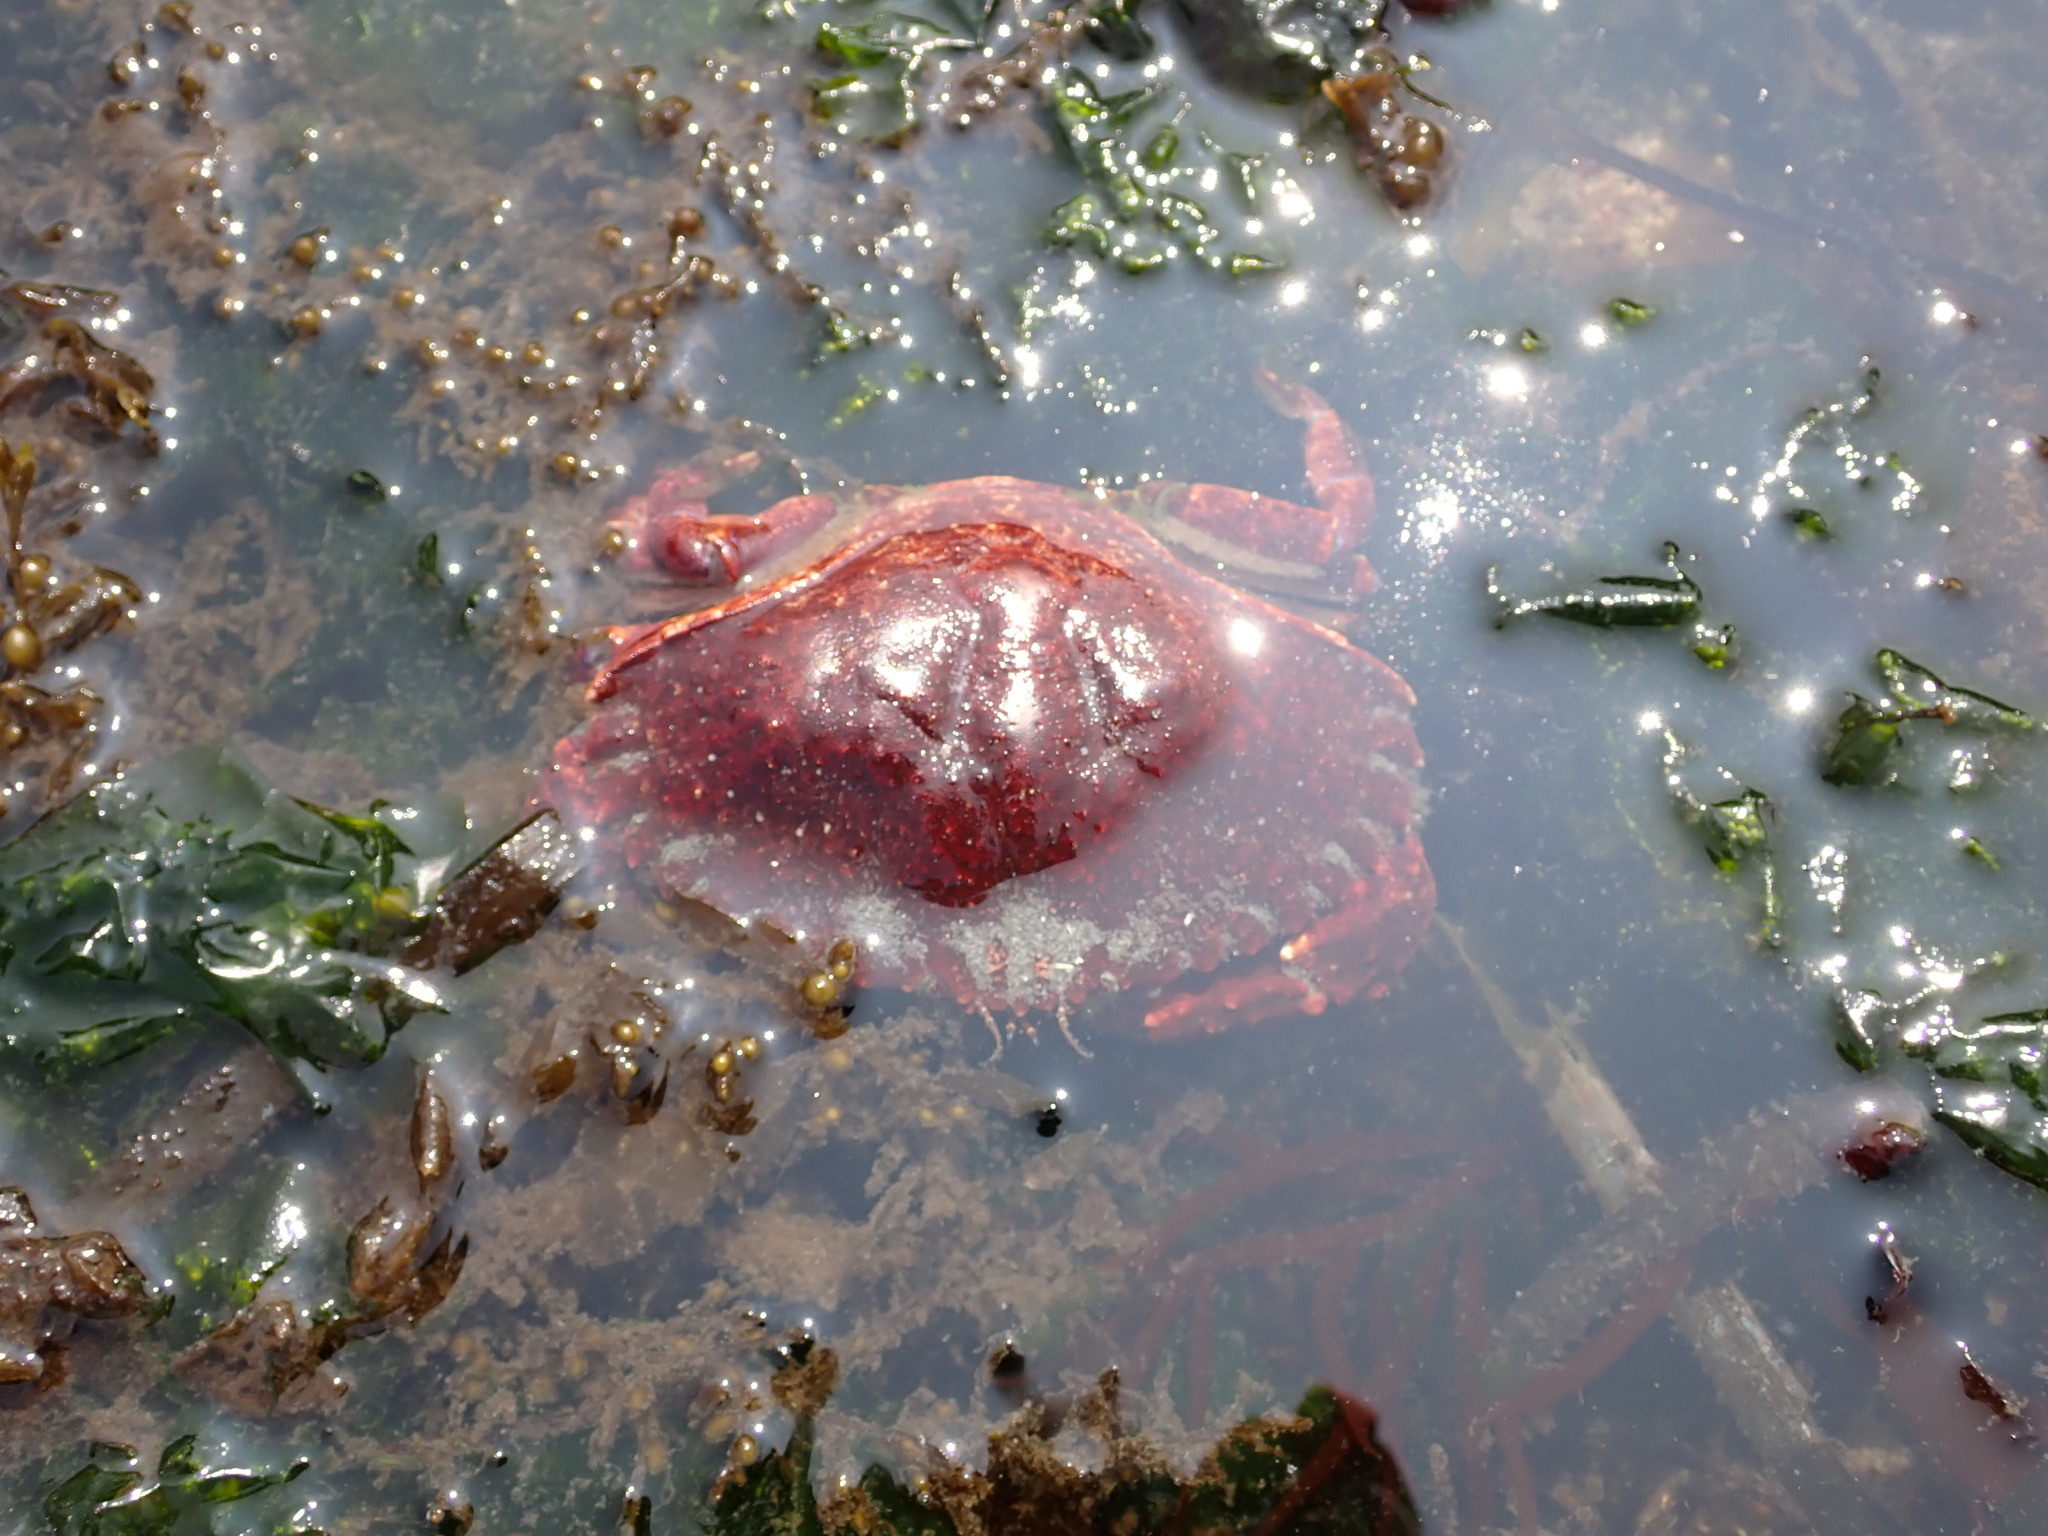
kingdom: Animalia
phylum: Arthropoda
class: Malacostraca
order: Decapoda
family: Cancridae
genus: Cancer
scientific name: Cancer productus
